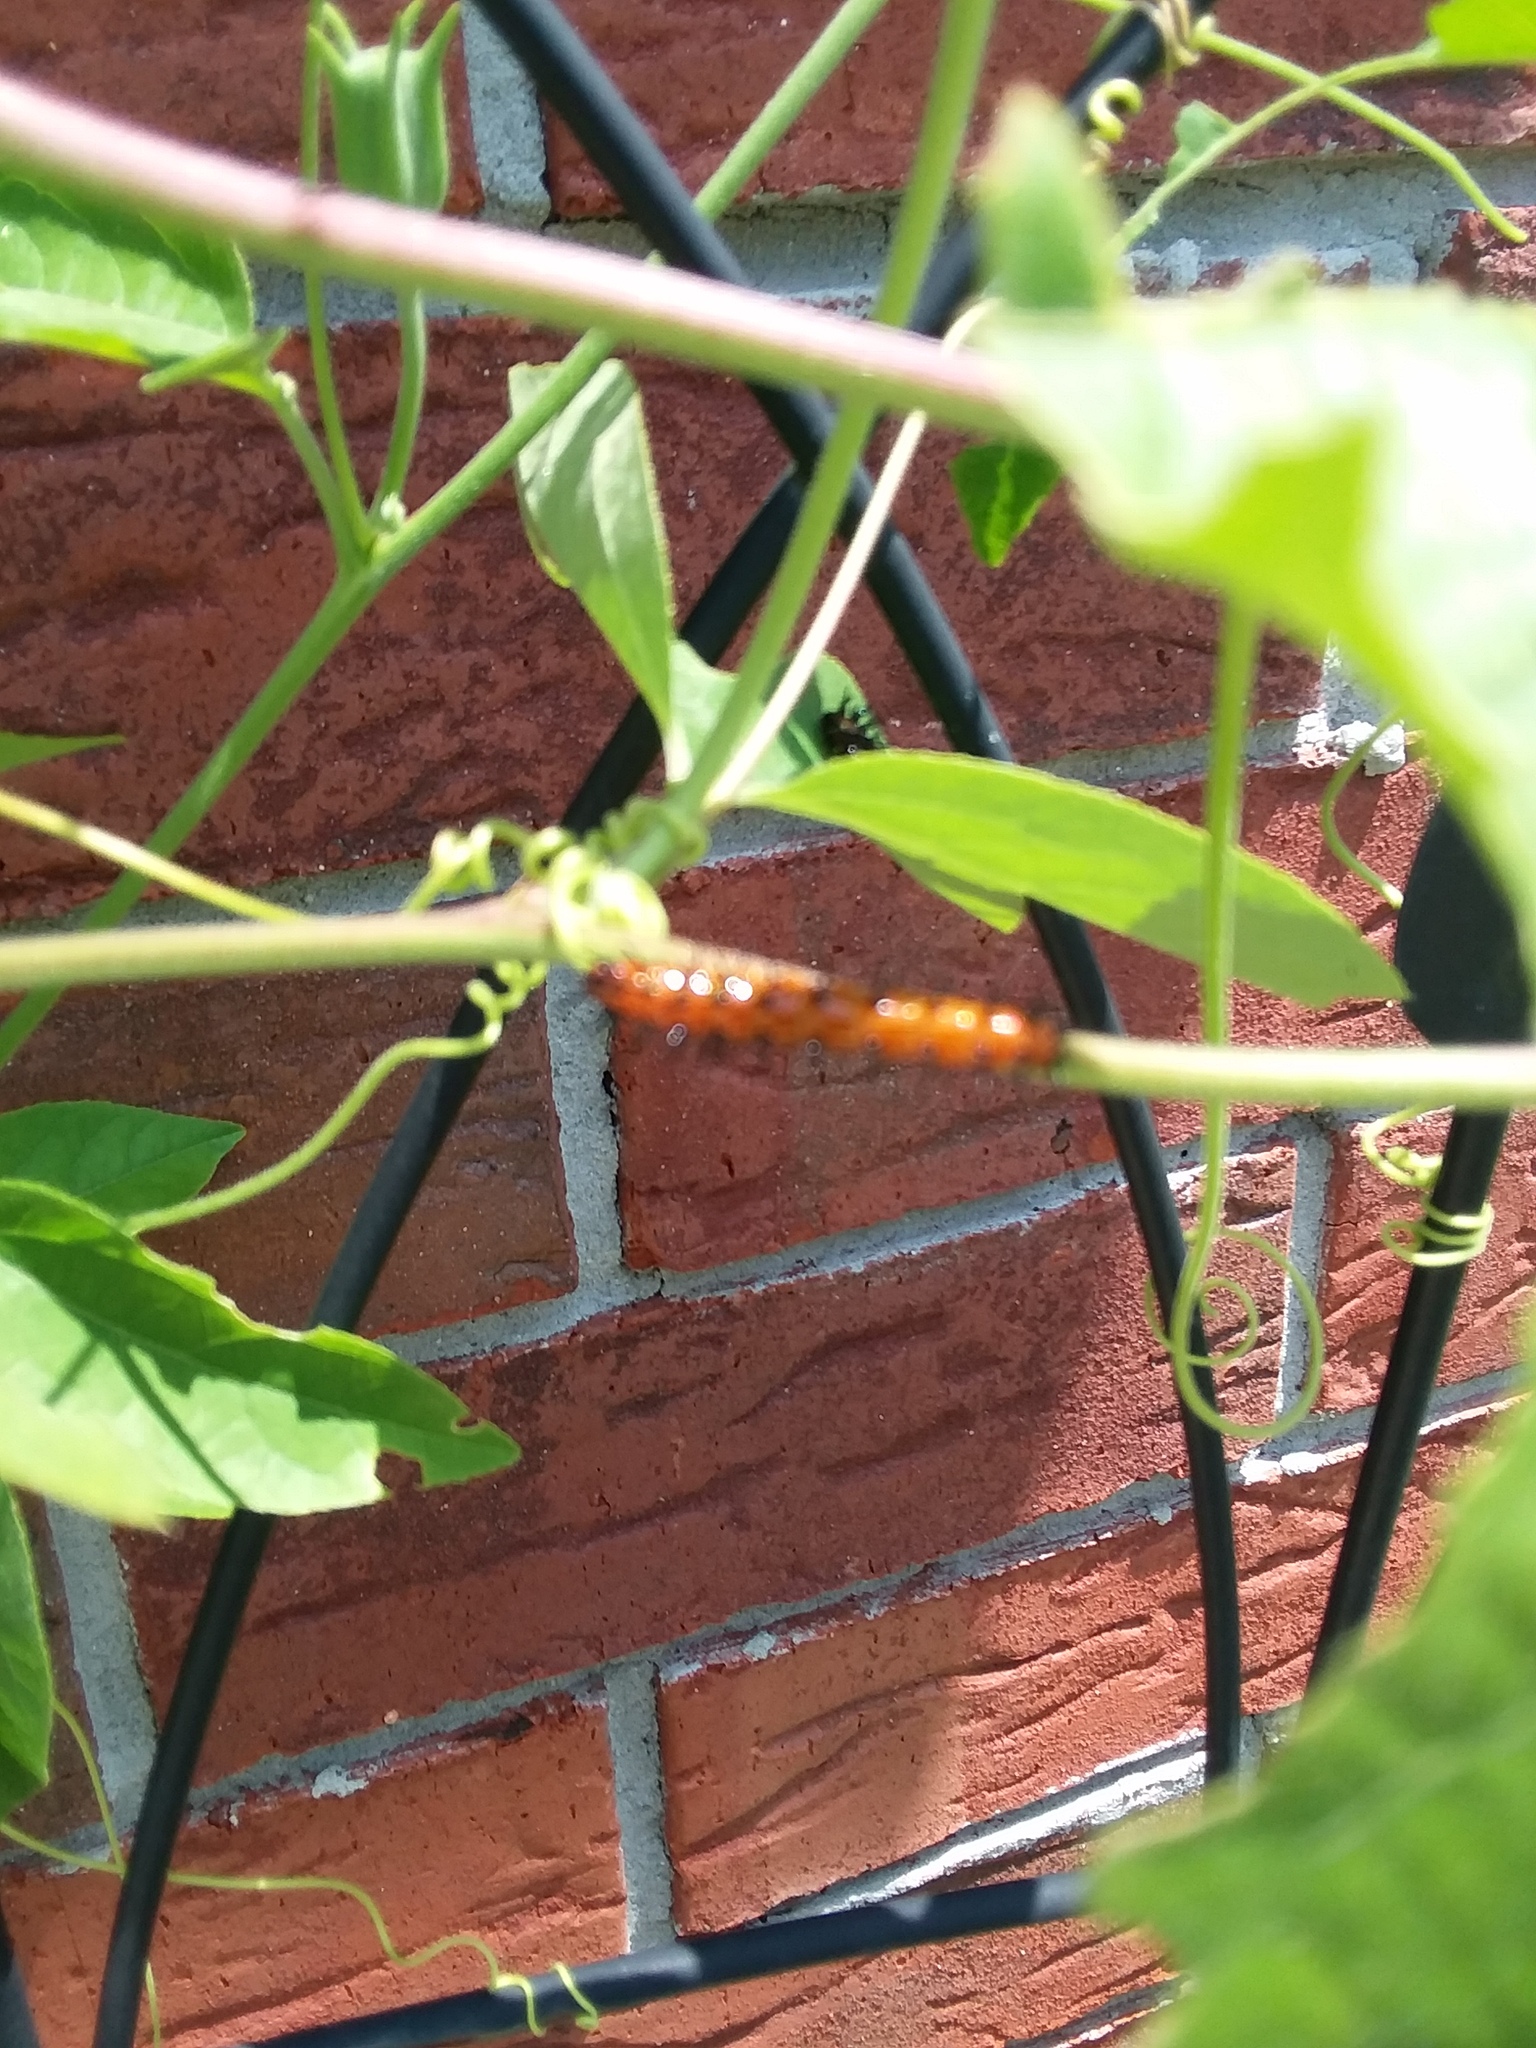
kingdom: Animalia
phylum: Arthropoda
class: Insecta
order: Lepidoptera
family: Nymphalidae
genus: Dione
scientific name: Dione vanillae
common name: Gulf fritillary
